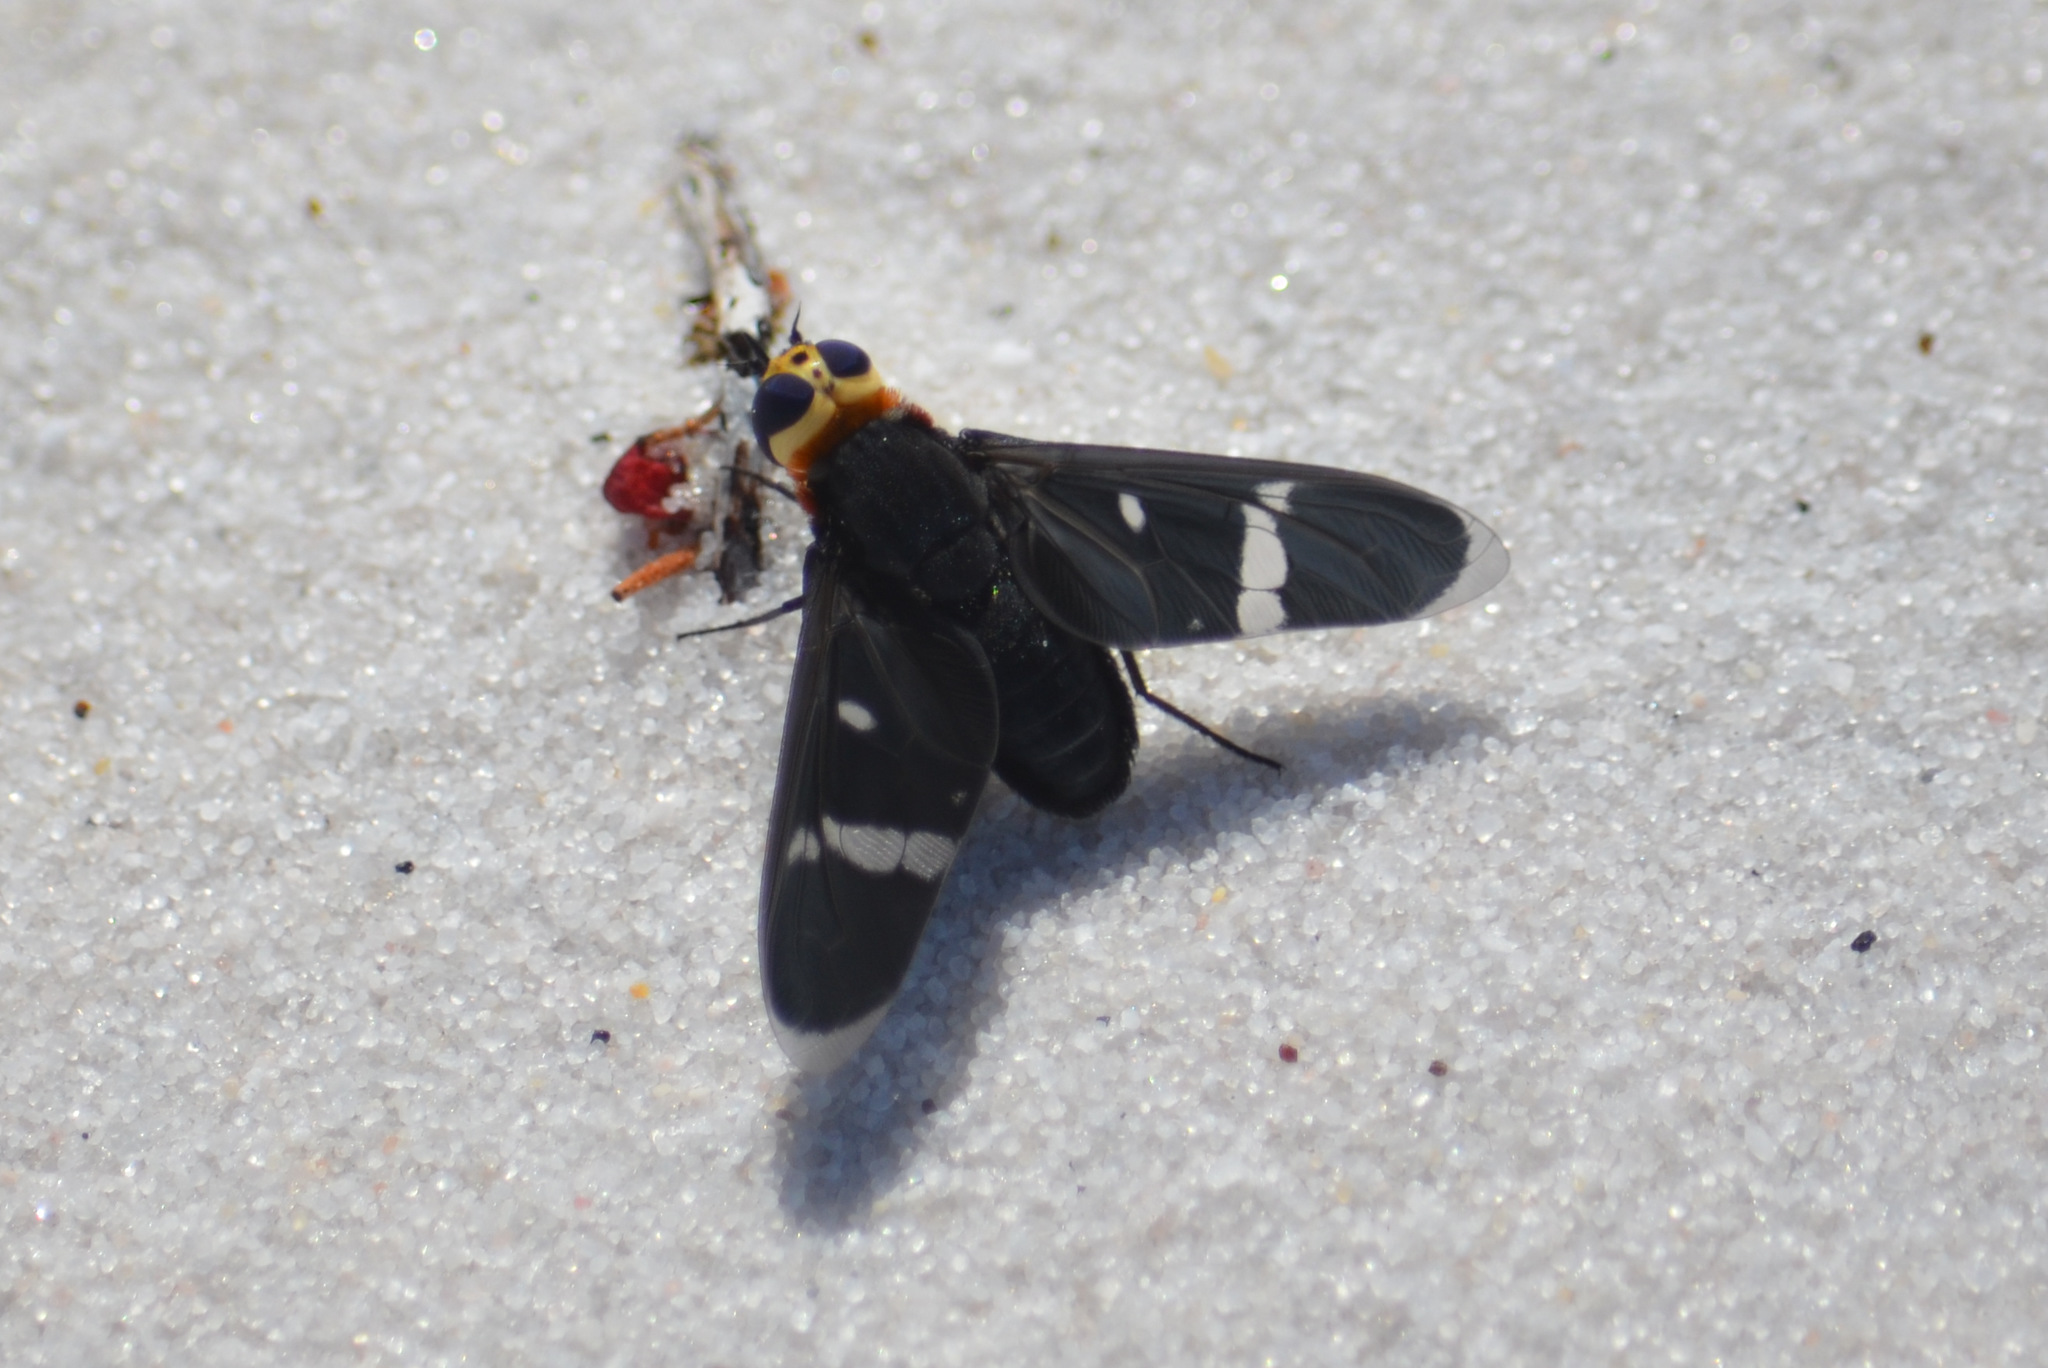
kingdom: Animalia
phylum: Arthropoda
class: Insecta
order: Diptera
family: Bombyliidae
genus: Hyperalonia
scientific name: Hyperalonia morio
